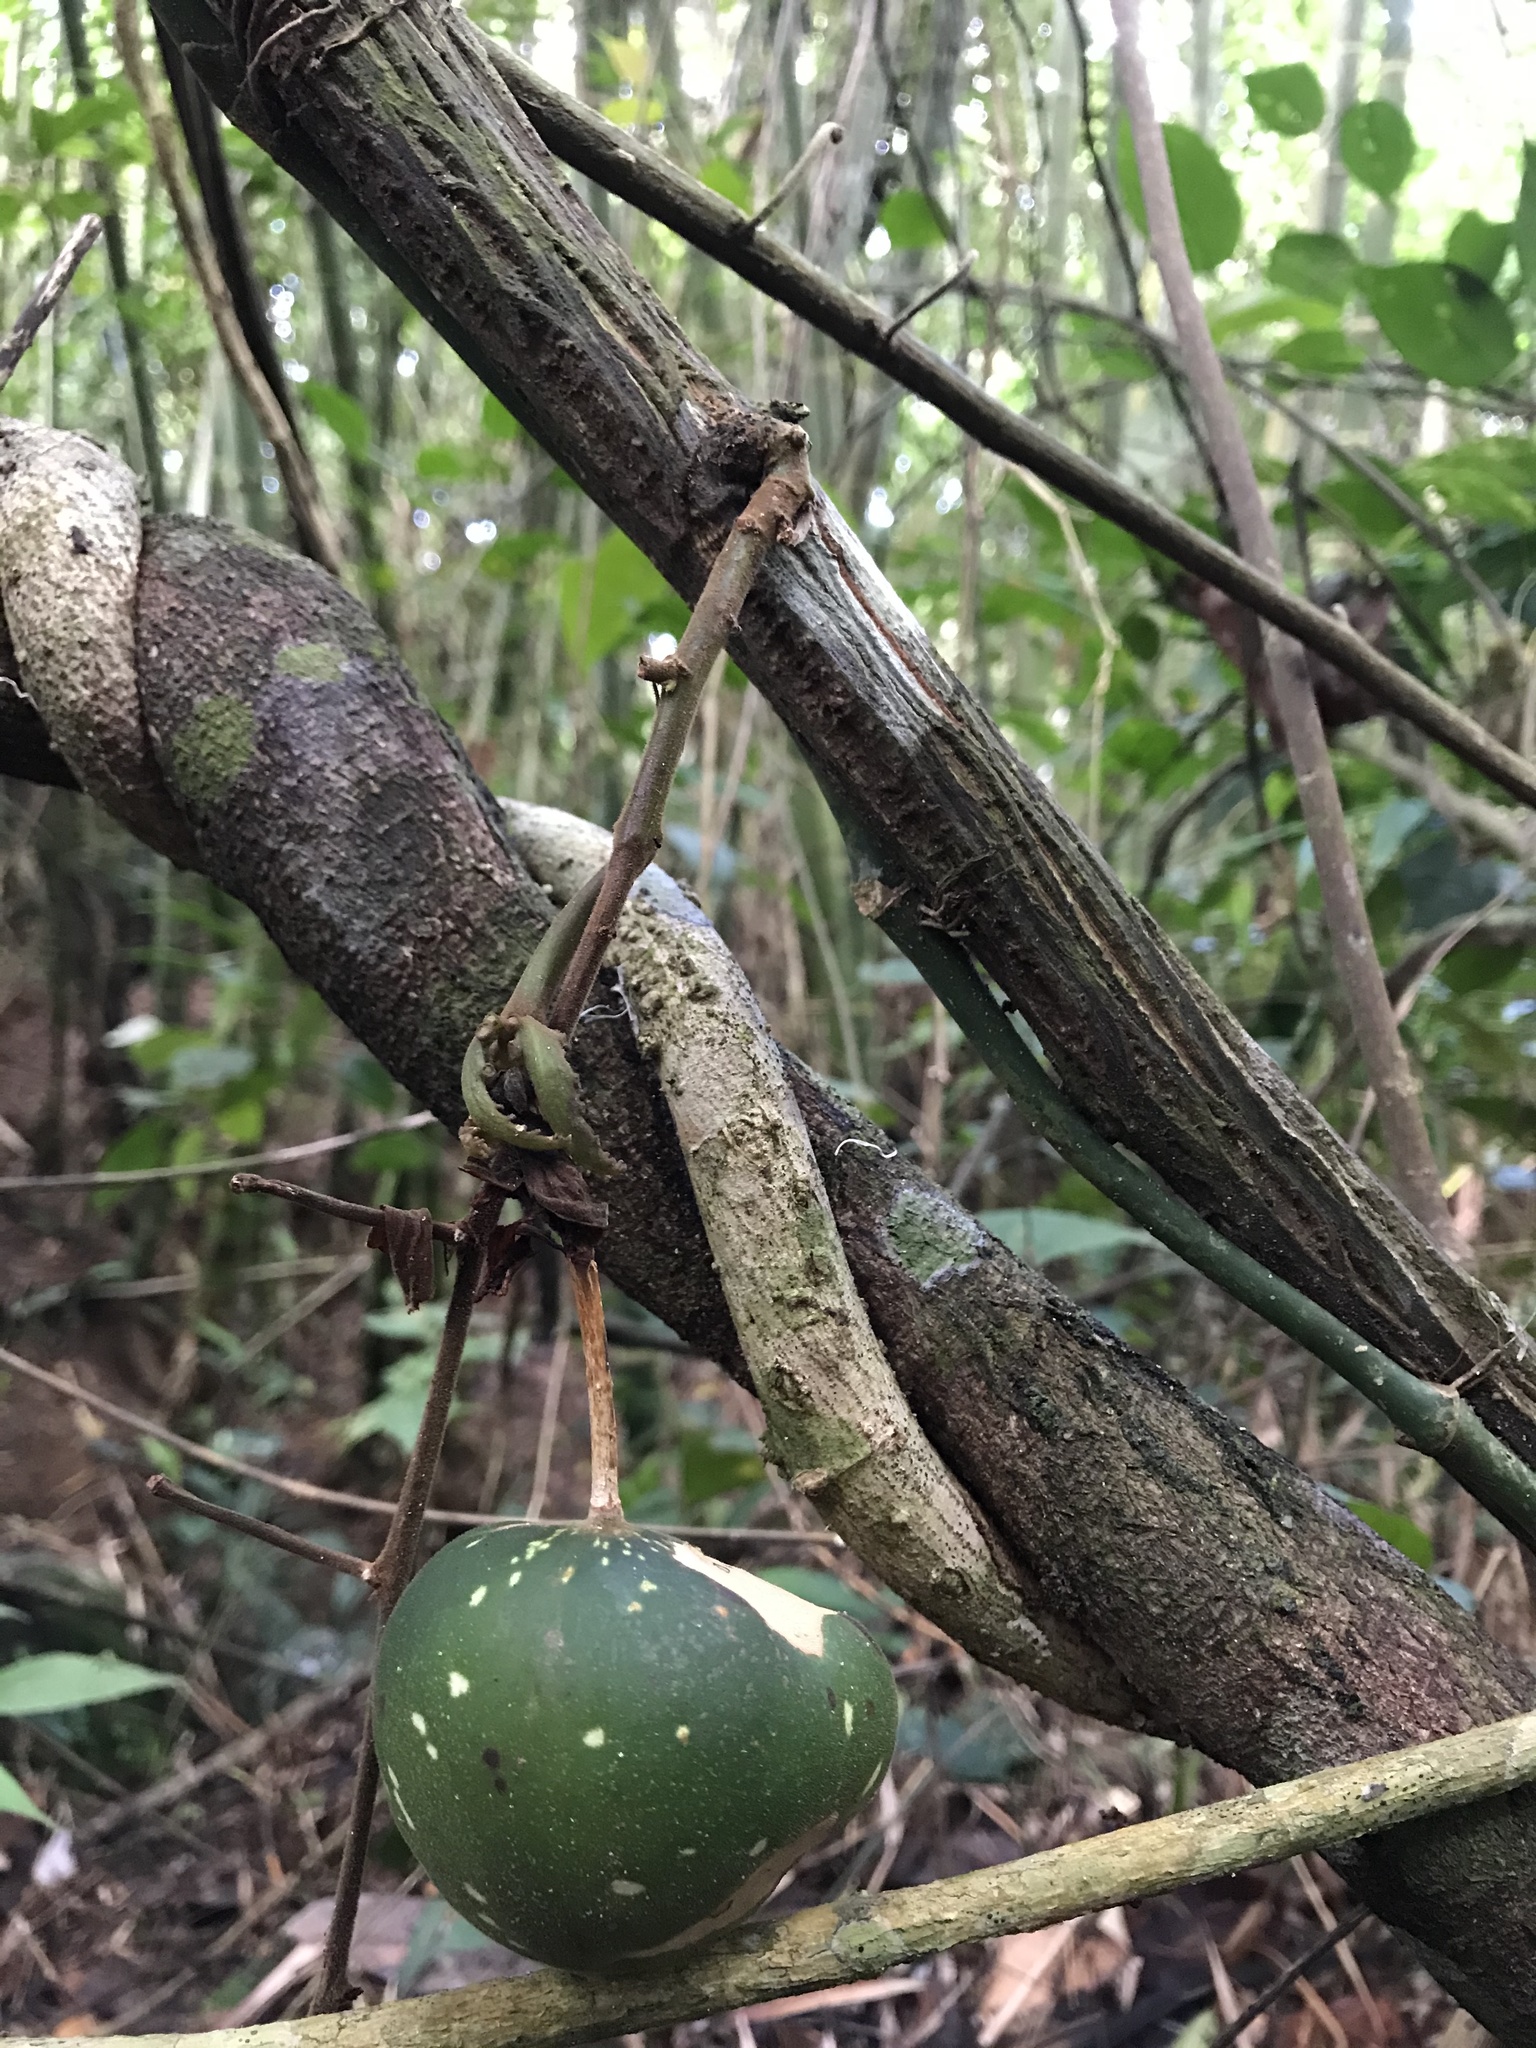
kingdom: Plantae
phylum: Tracheophyta
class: Magnoliopsida
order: Malpighiales
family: Passifloraceae
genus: Passiflora
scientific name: Passiflora vitifolia
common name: Perfumed passionflower
